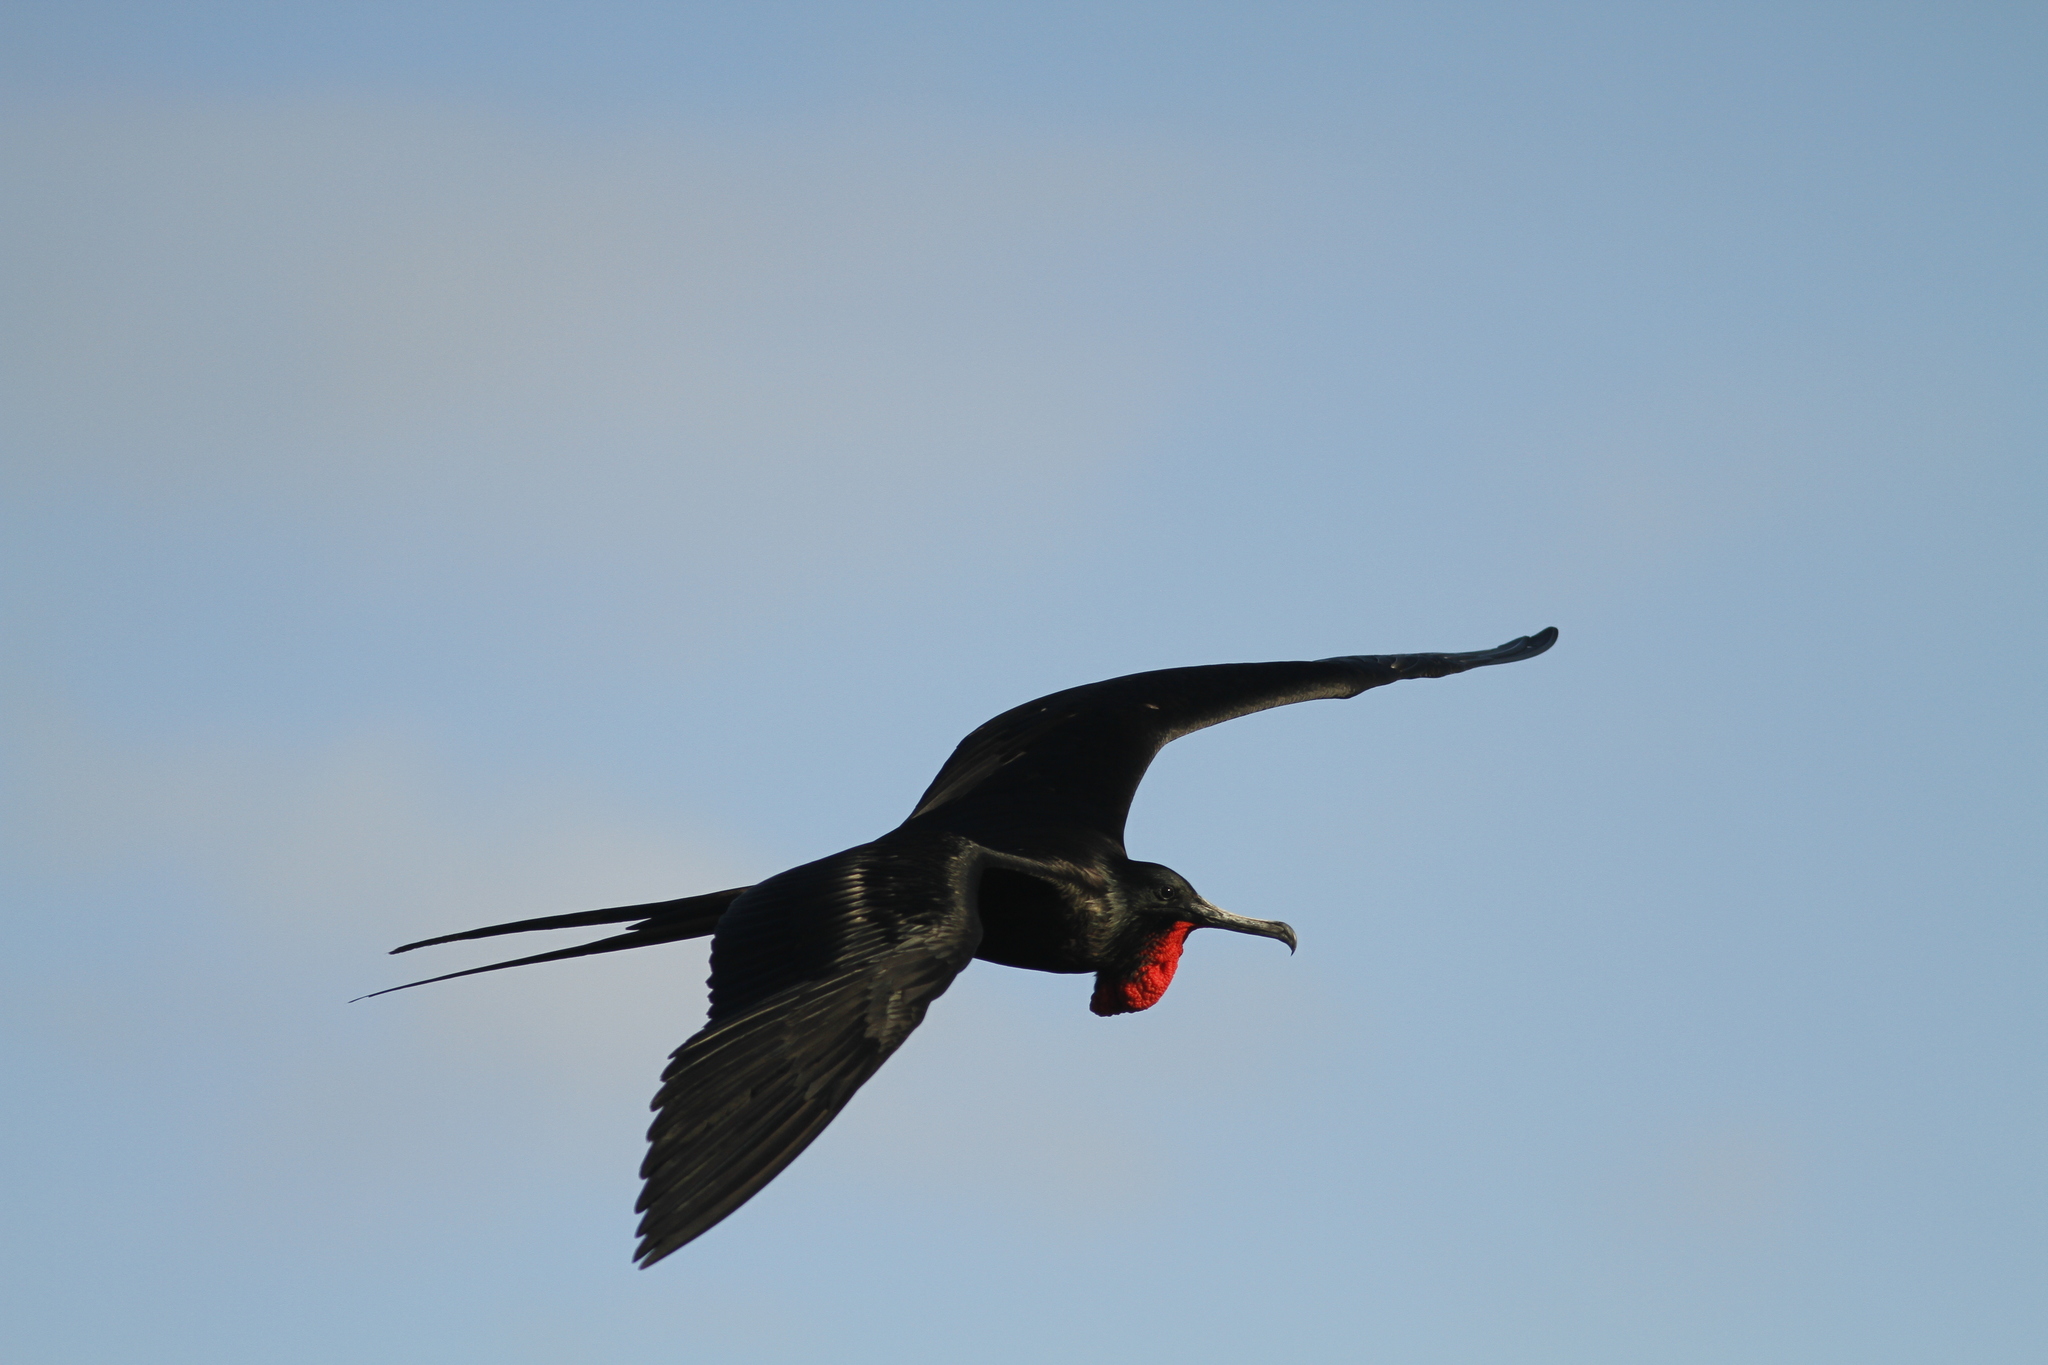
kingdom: Animalia
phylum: Chordata
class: Aves
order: Suliformes
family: Fregatidae
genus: Fregata
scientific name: Fregata magnificens
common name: Magnificent frigatebird
